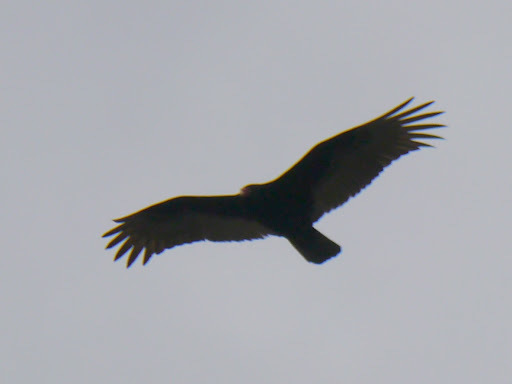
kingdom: Animalia
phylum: Chordata
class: Aves
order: Accipitriformes
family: Cathartidae
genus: Cathartes
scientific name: Cathartes aura
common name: Turkey vulture
